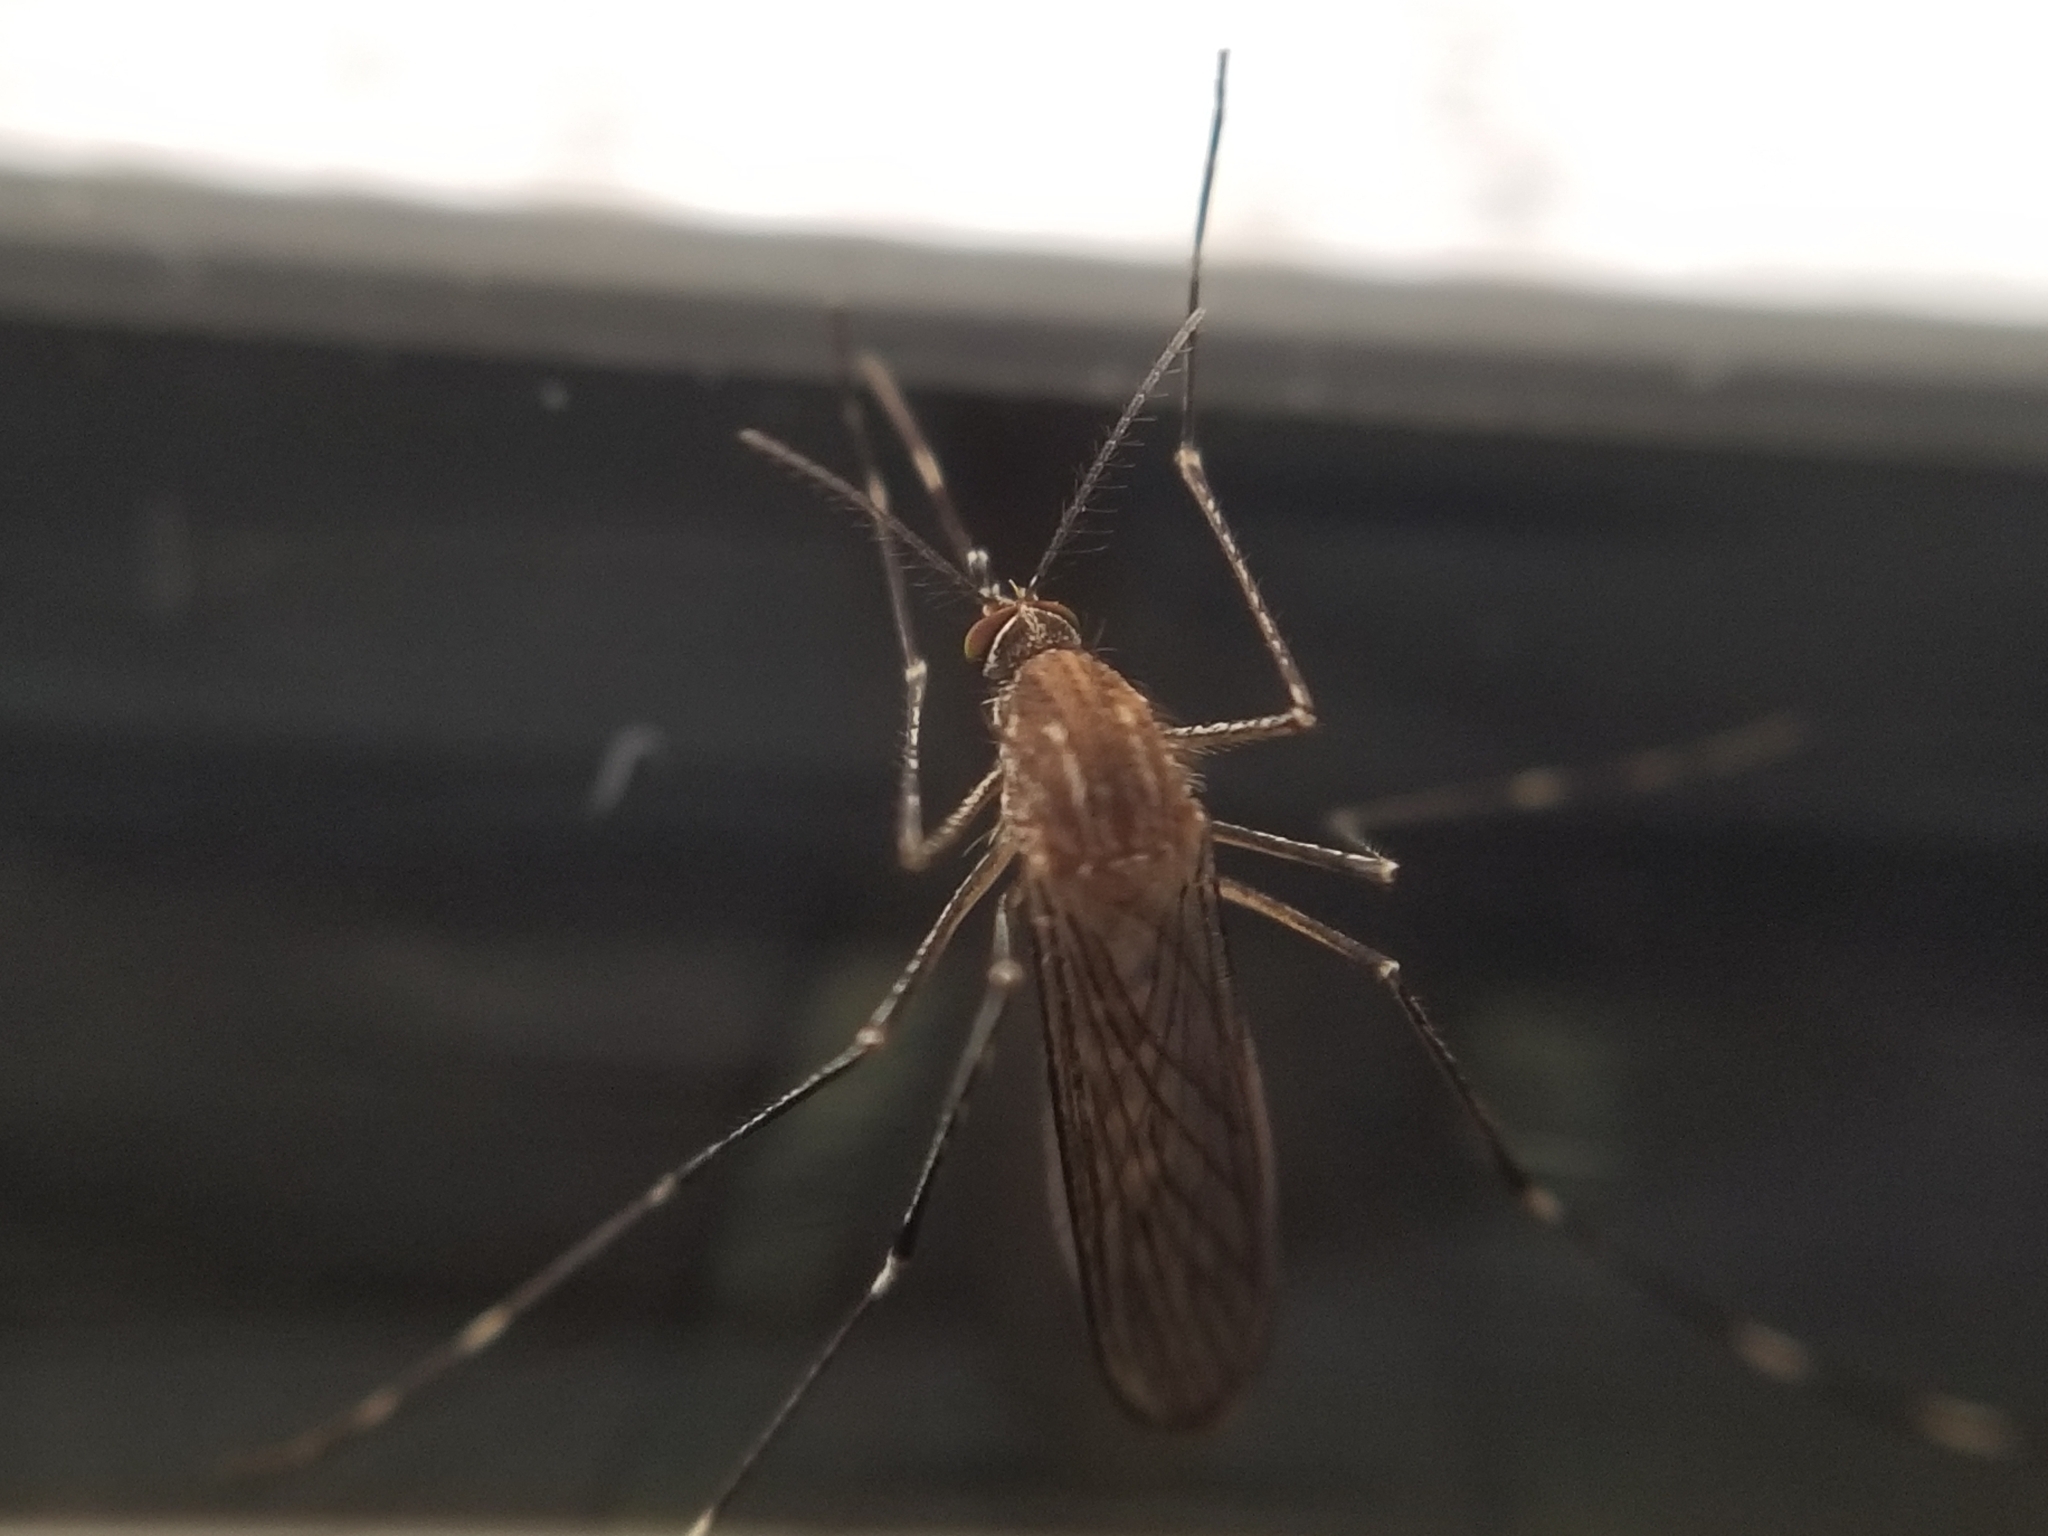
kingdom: Animalia
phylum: Arthropoda
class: Insecta
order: Diptera
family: Culicidae
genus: Culex
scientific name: Culex tarsalis
